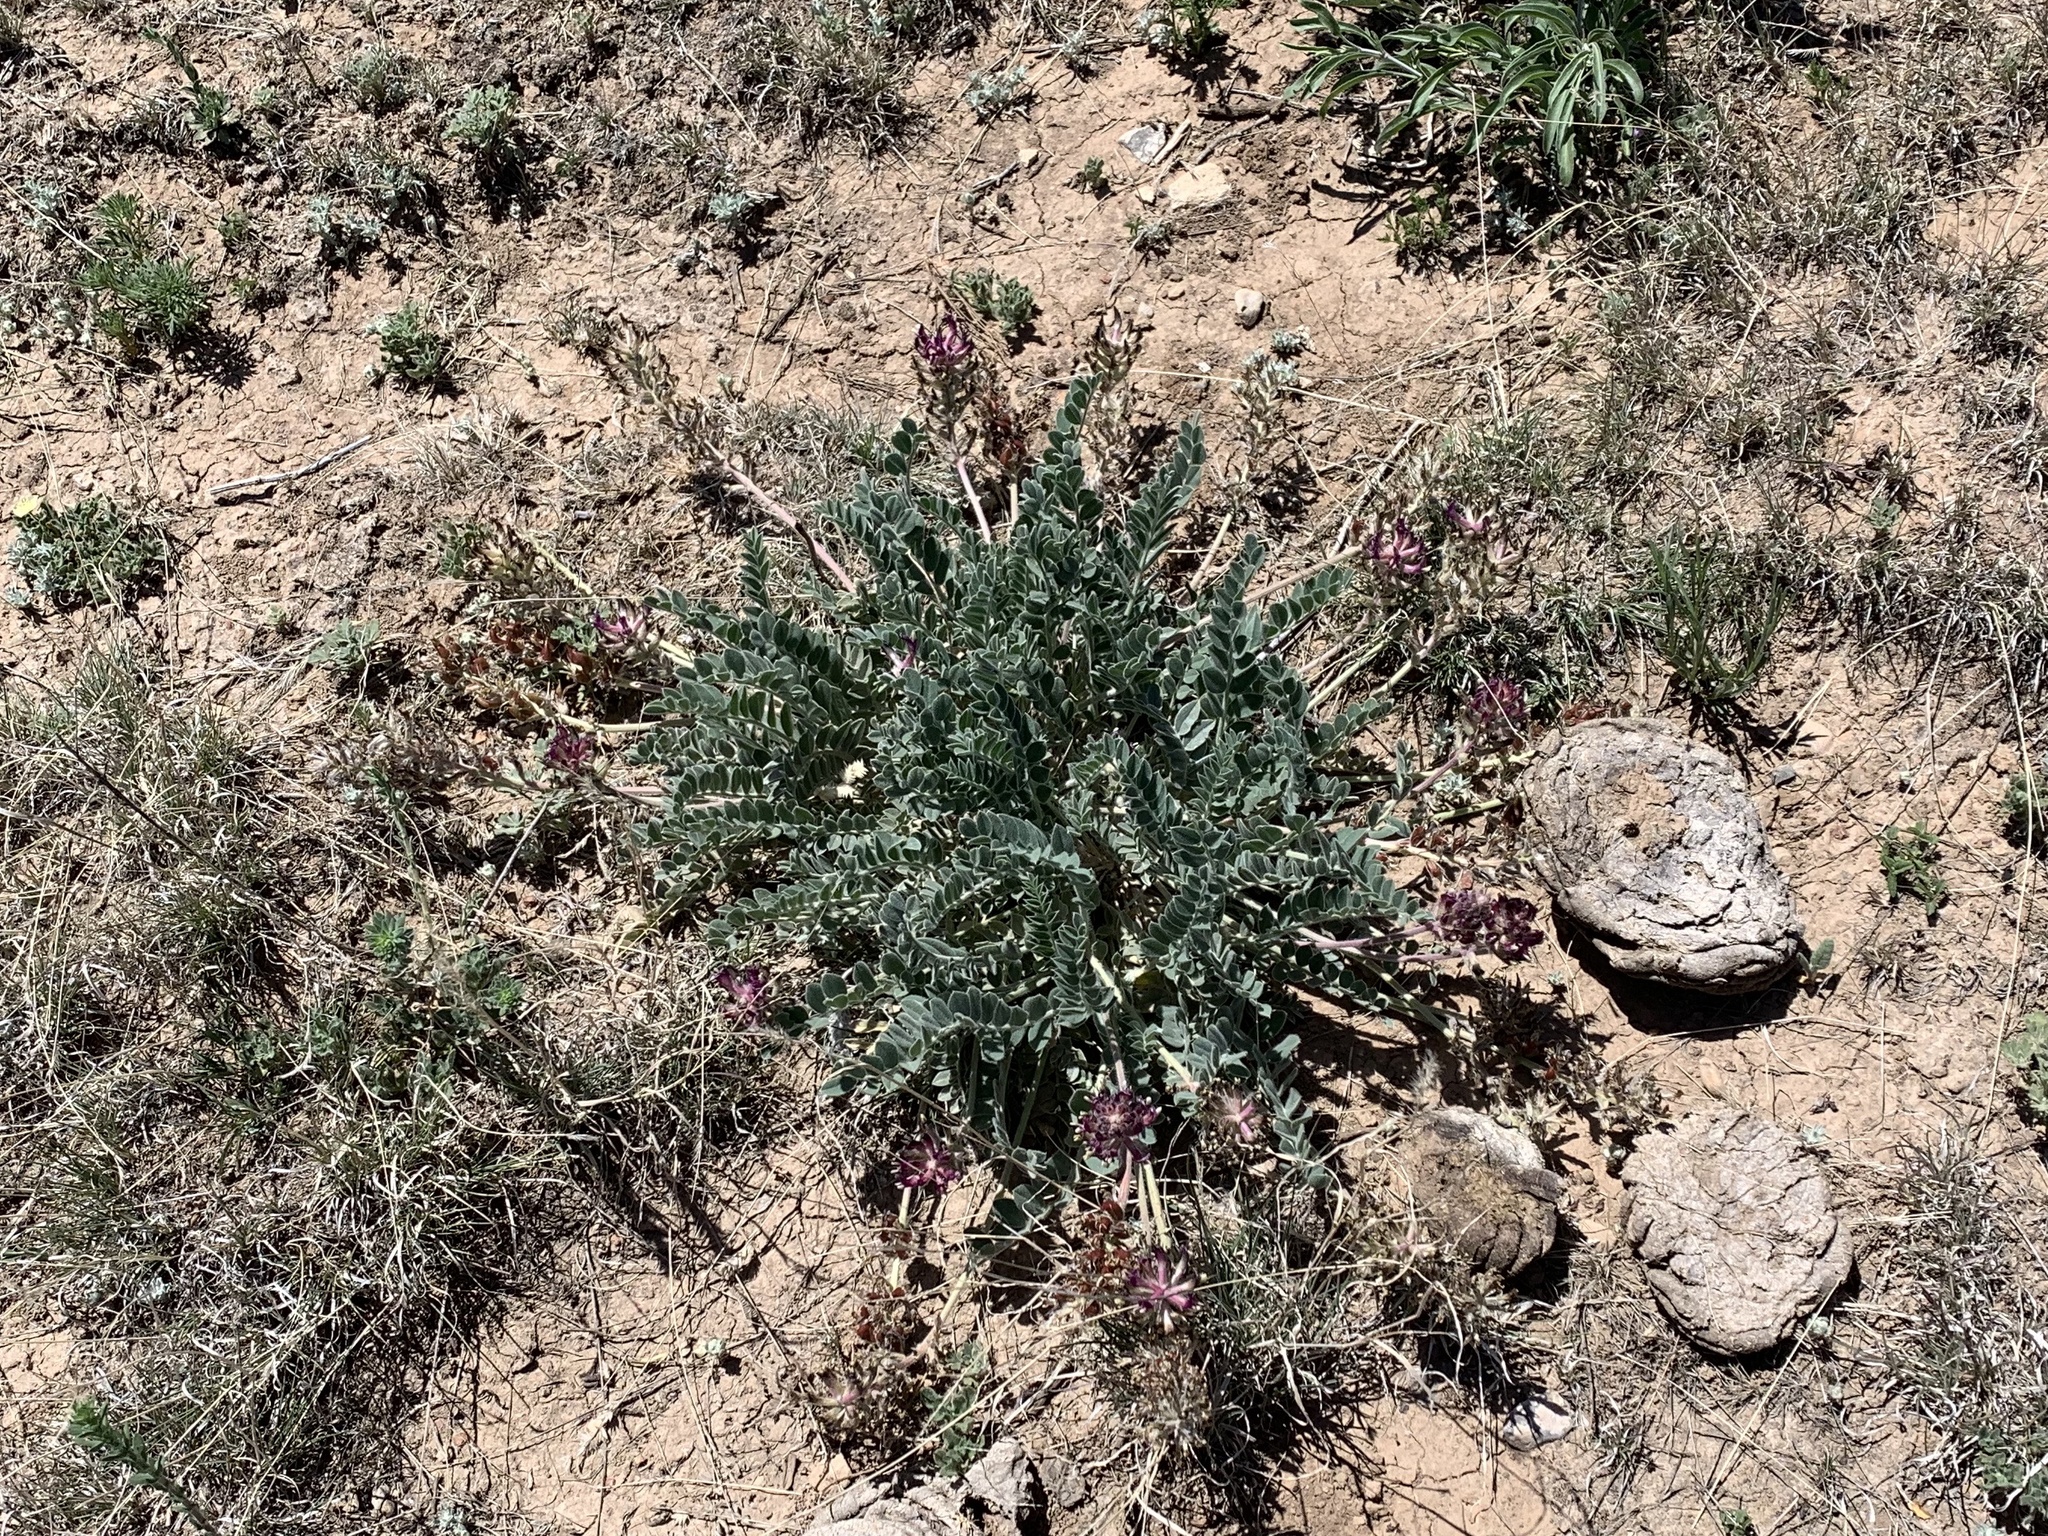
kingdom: Plantae
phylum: Tracheophyta
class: Magnoliopsida
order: Fabales
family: Fabaceae
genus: Astragalus
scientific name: Astragalus mollissimus
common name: Woolly locoweed
